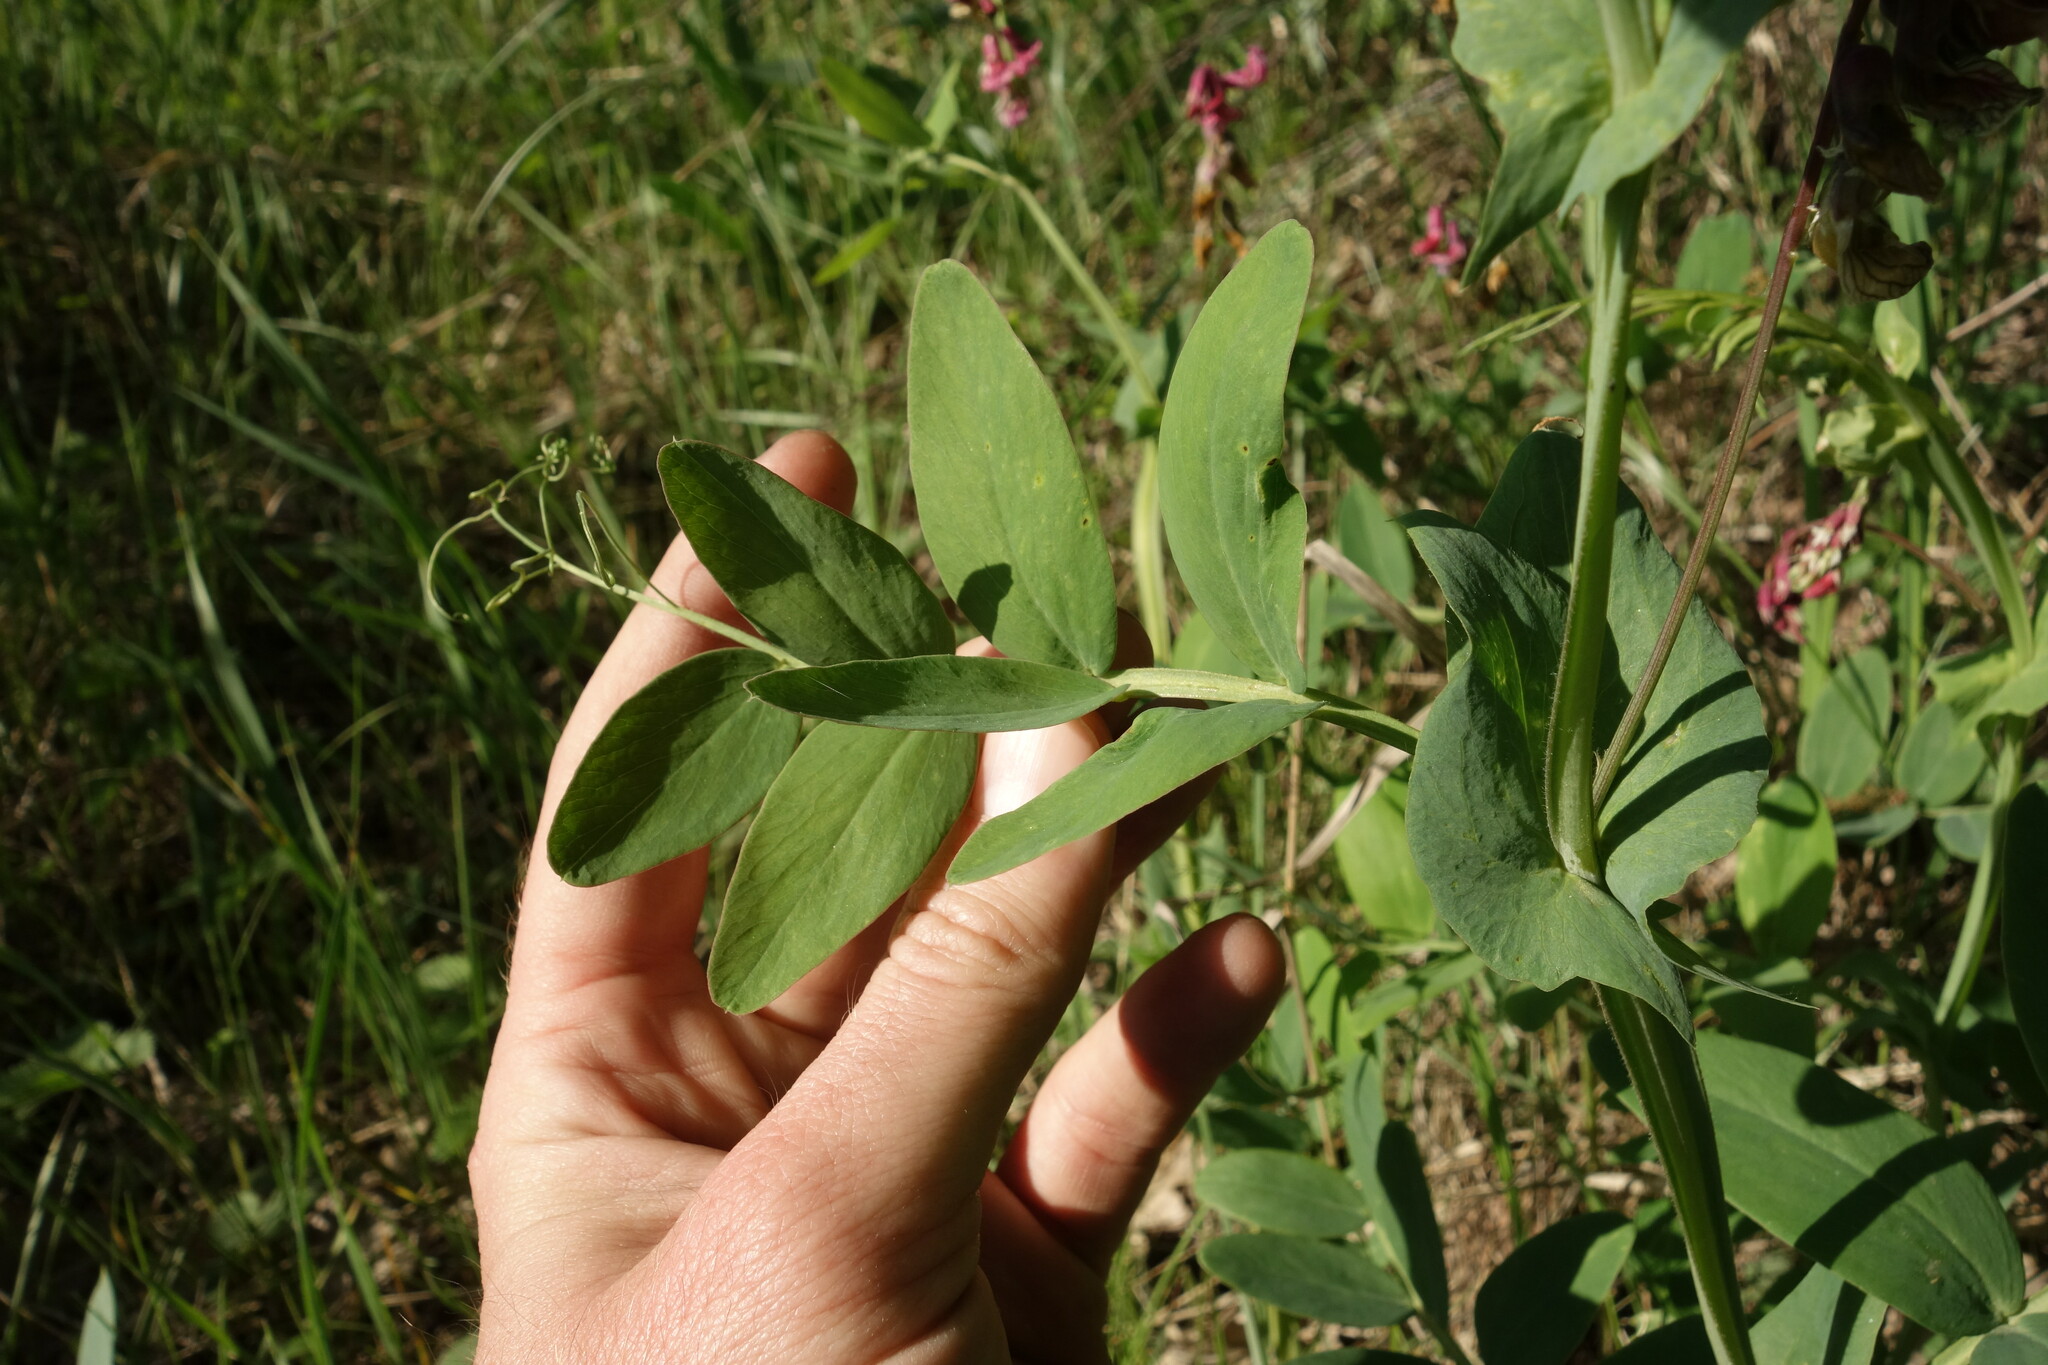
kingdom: Plantae
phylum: Tracheophyta
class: Magnoliopsida
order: Fabales
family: Fabaceae
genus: Lathyrus
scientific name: Lathyrus pisiformis
